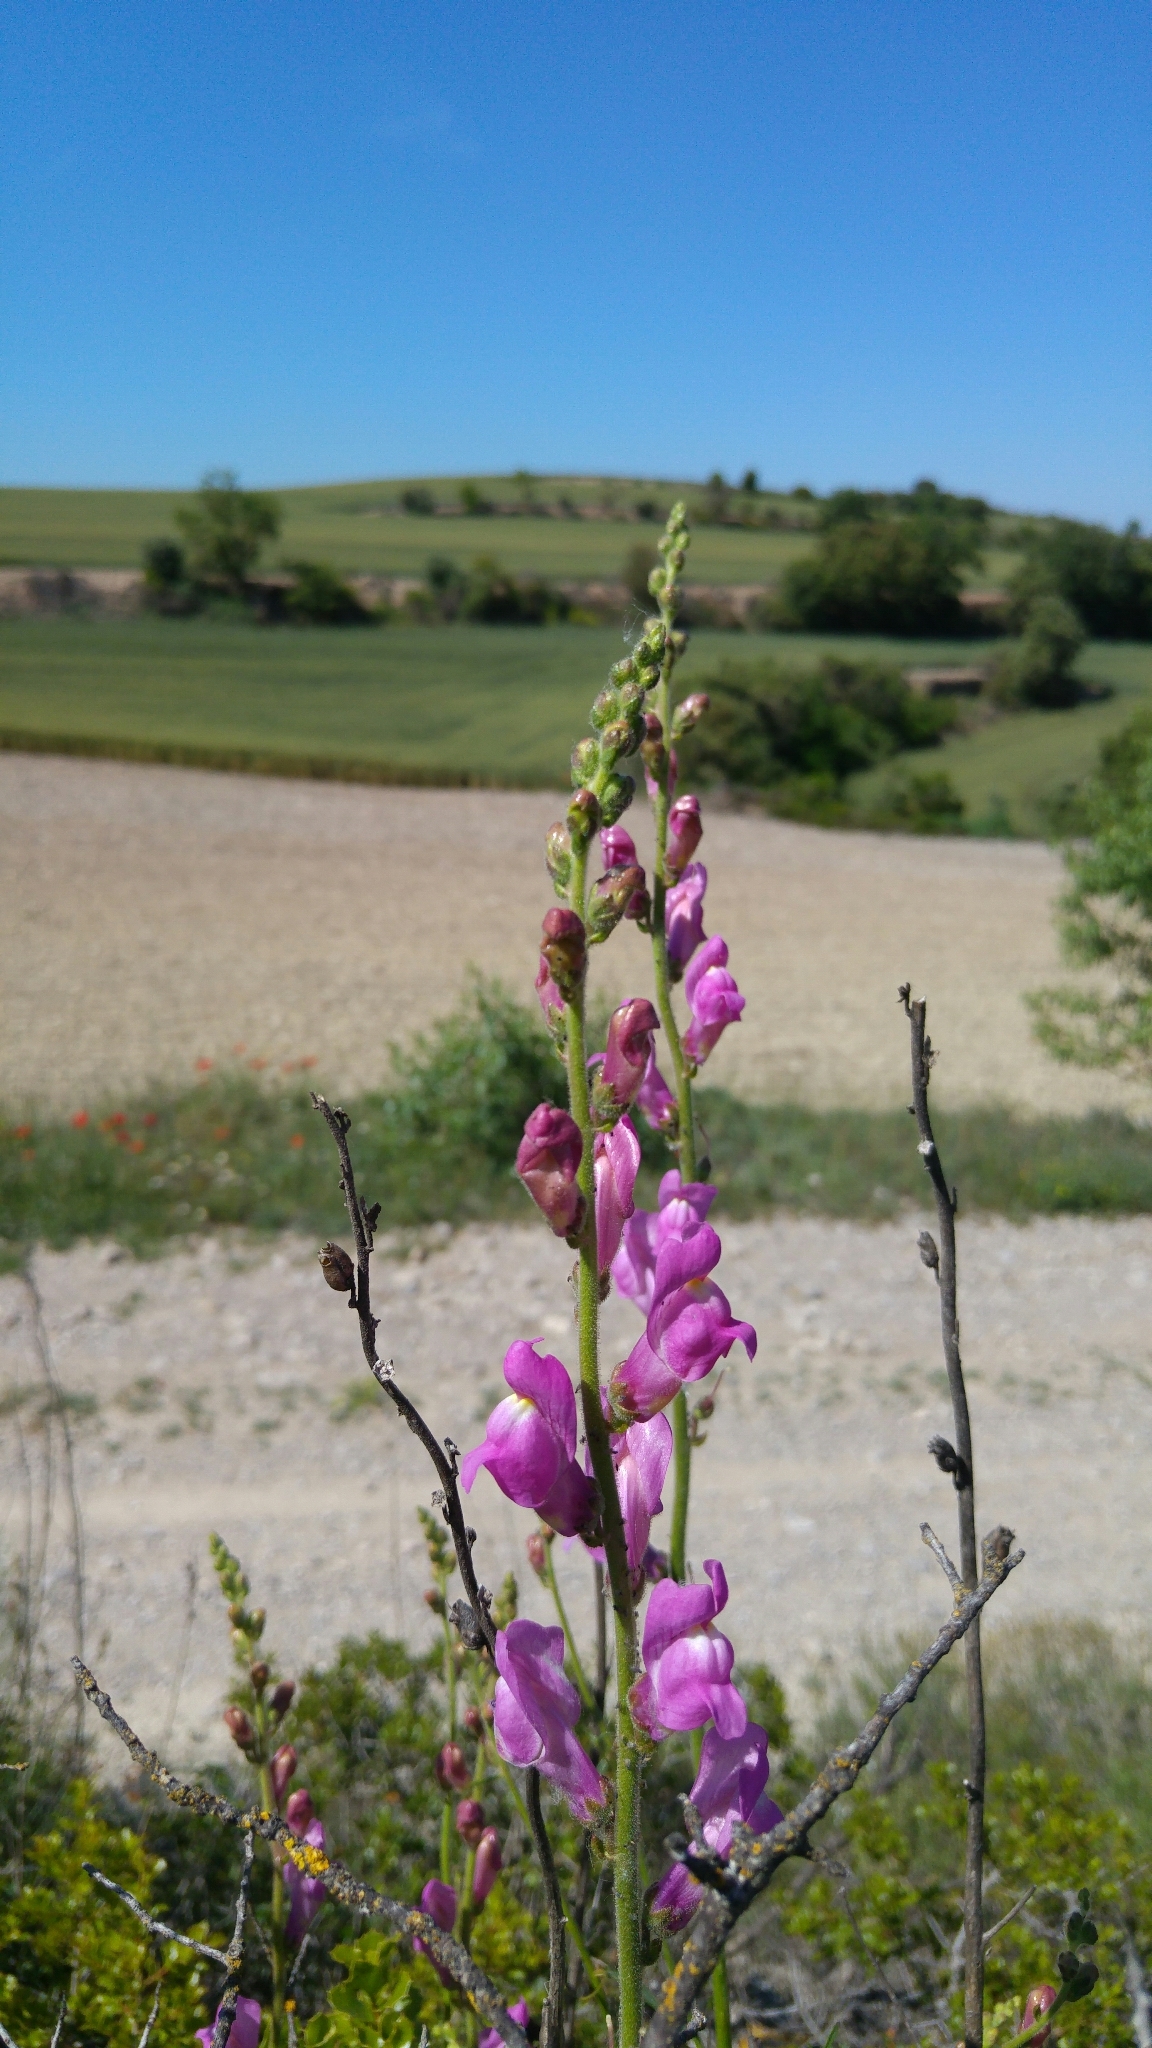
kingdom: Plantae
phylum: Tracheophyta
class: Magnoliopsida
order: Lamiales
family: Plantaginaceae
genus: Antirrhinum
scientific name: Antirrhinum majus
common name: Snapdragon
